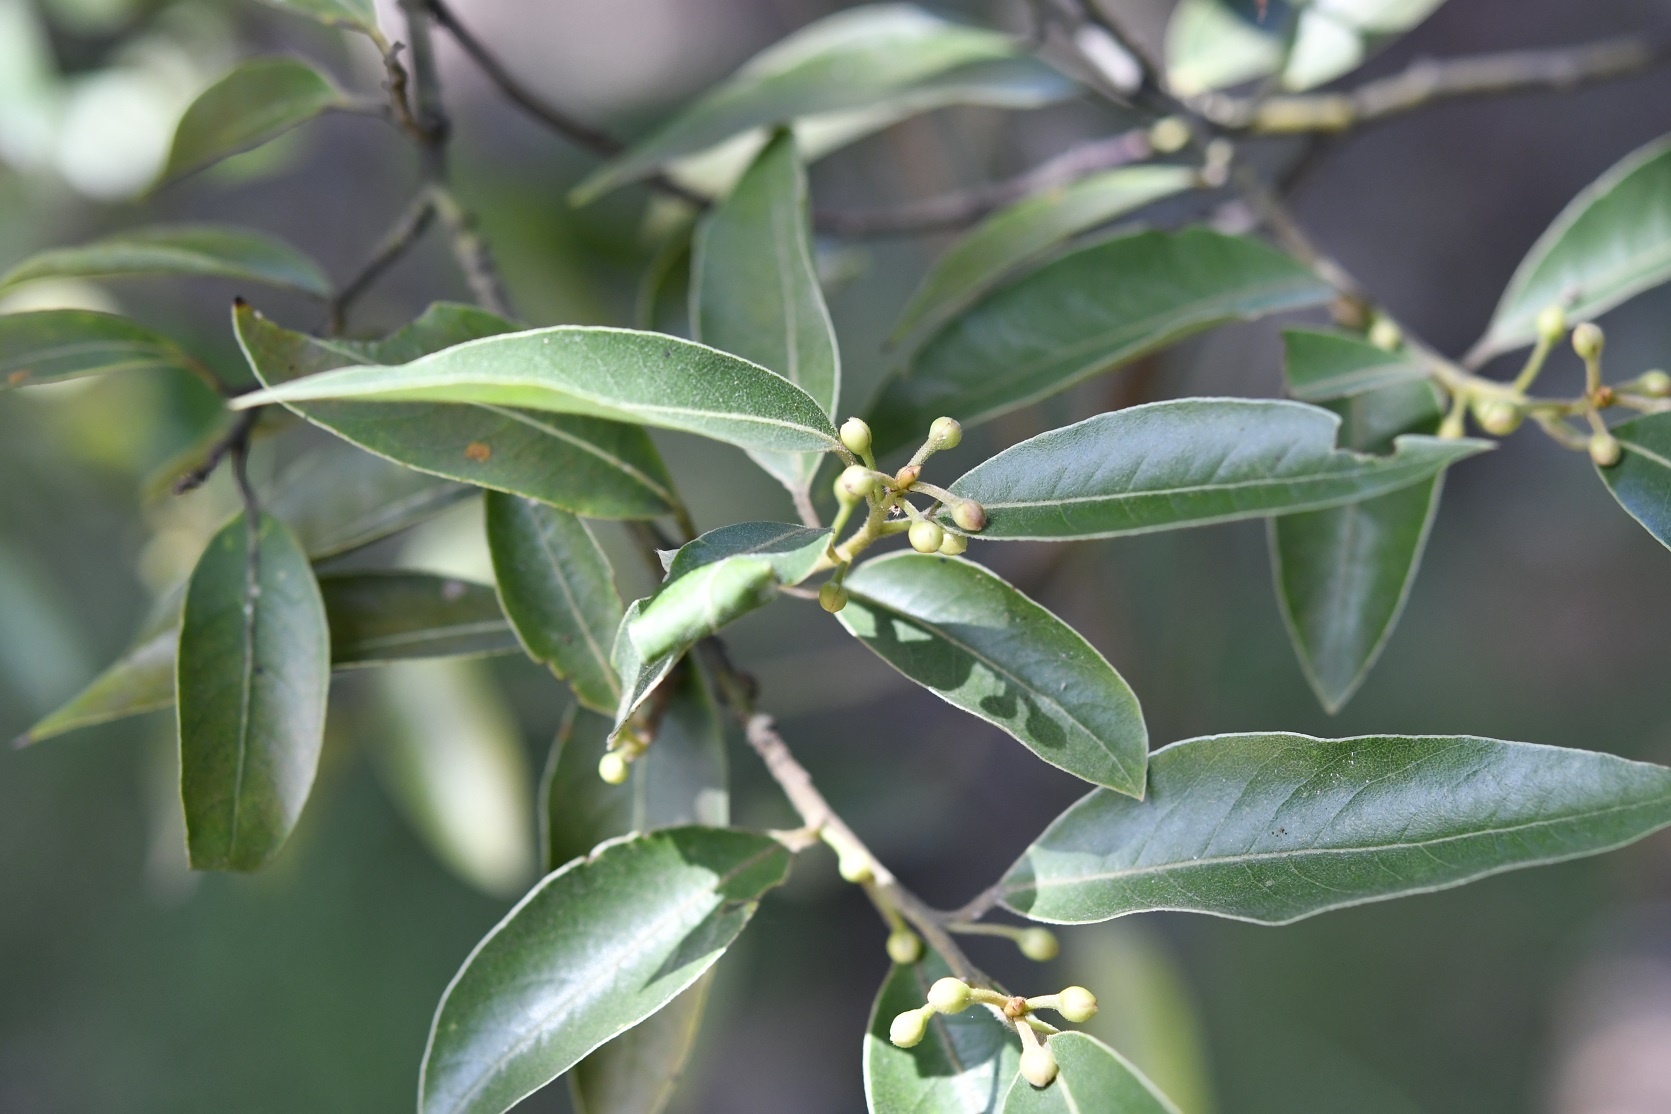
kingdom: Plantae
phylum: Tracheophyta
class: Magnoliopsida
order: Laurales
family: Lauraceae
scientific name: Lauraceae
